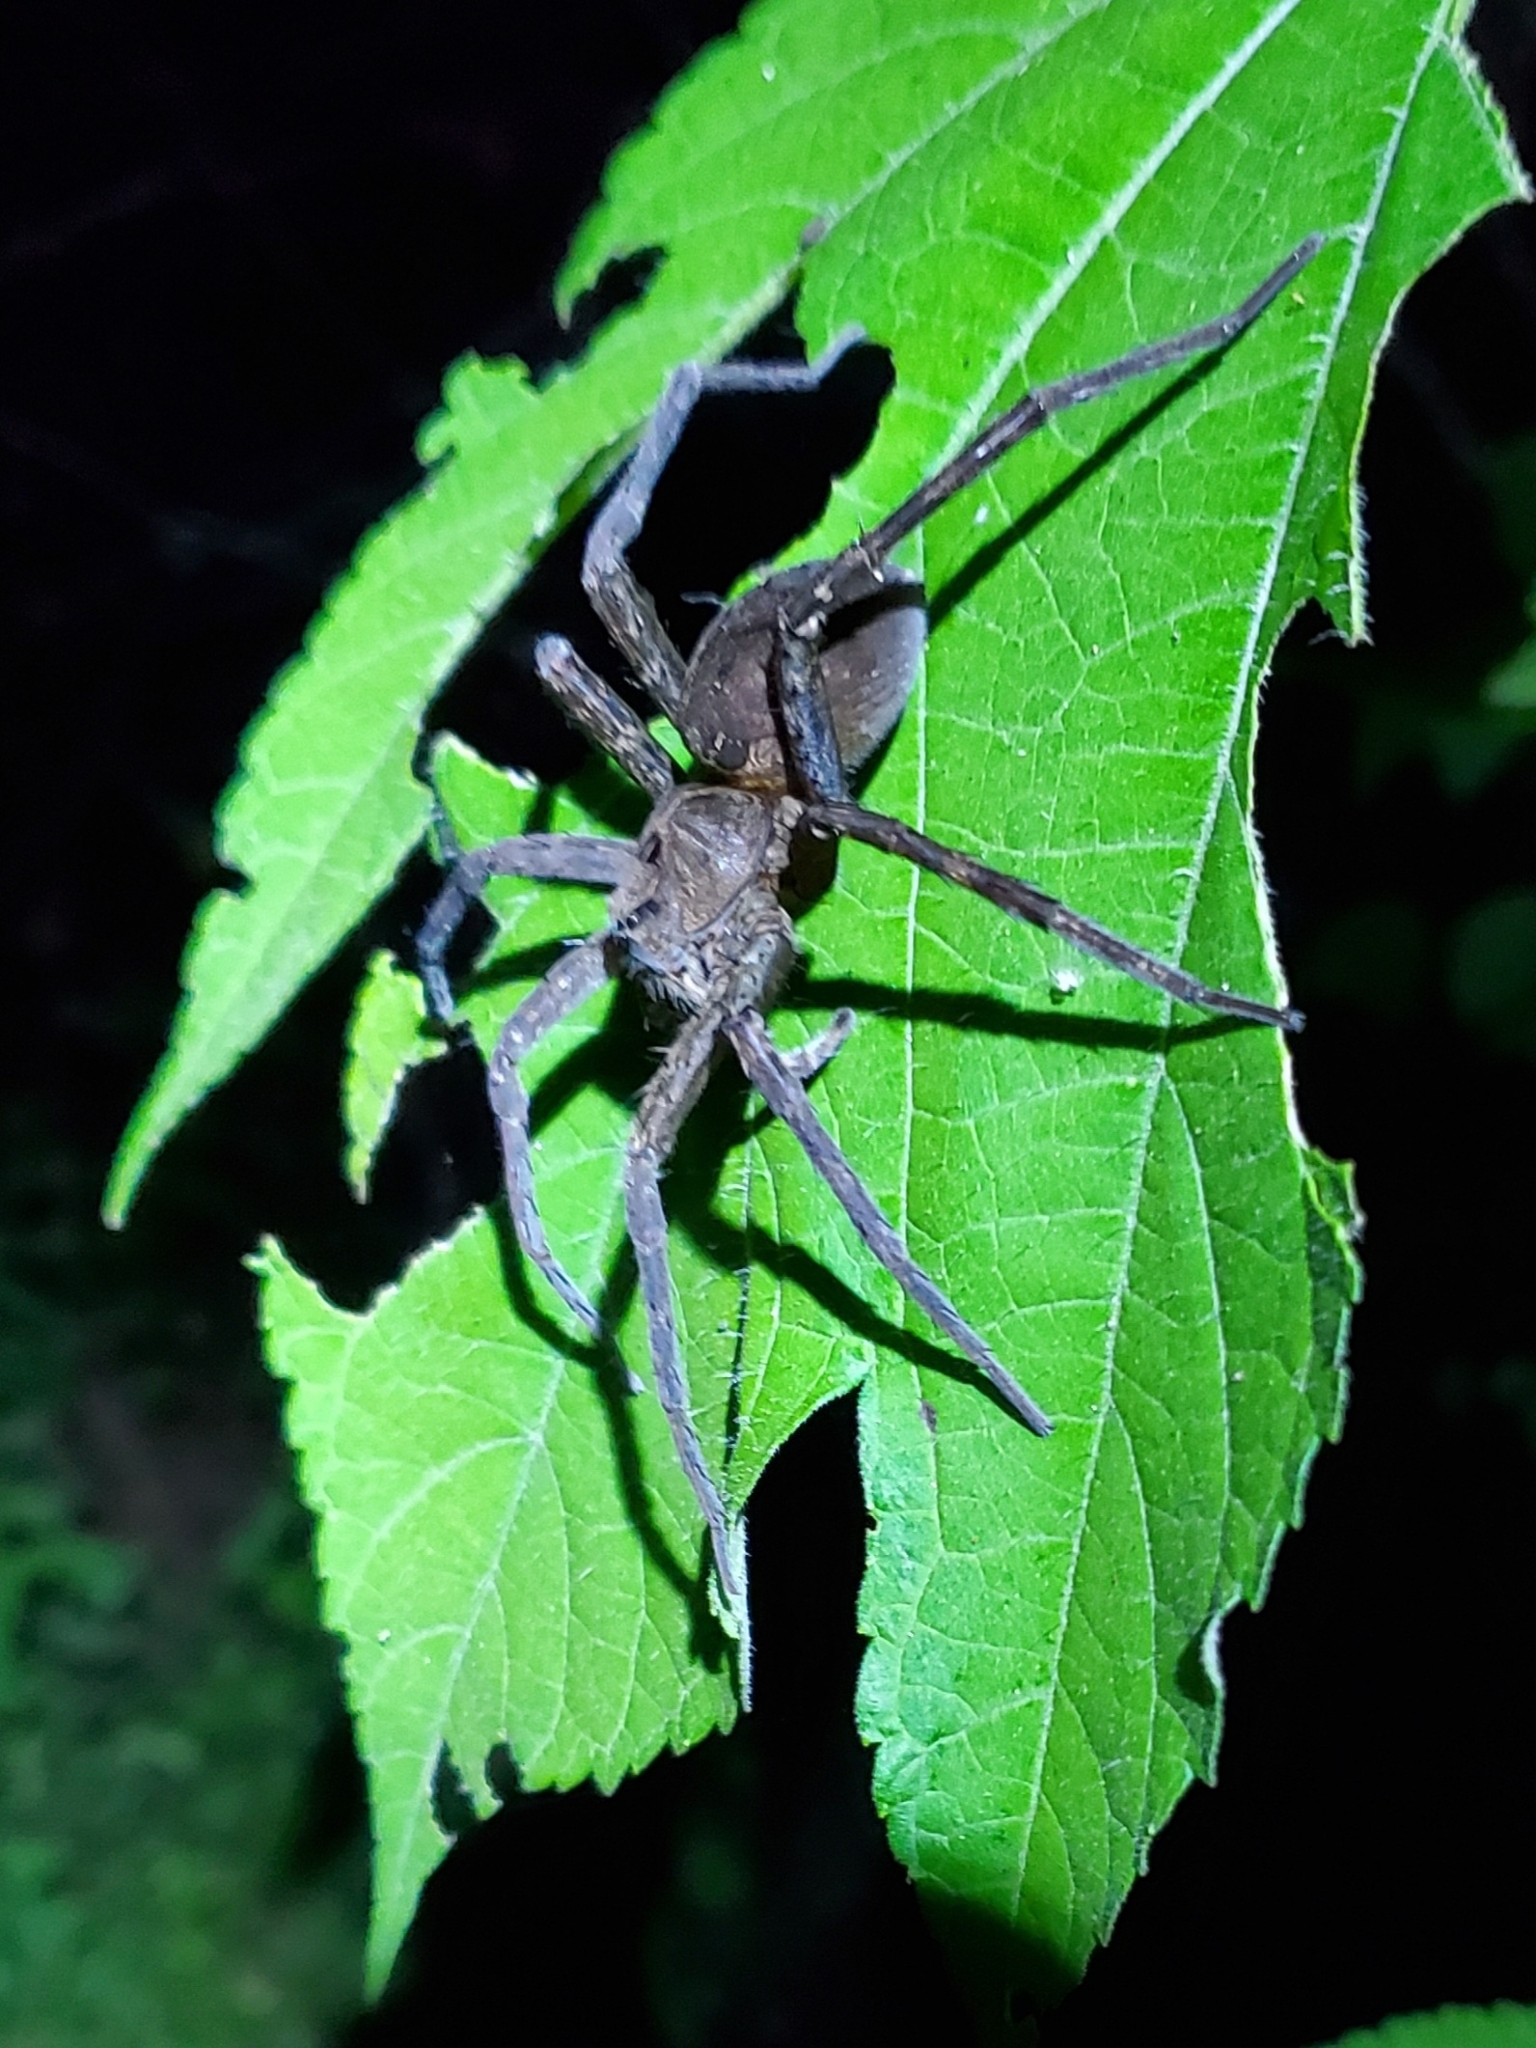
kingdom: Animalia
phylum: Arthropoda
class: Arachnida
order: Araneae
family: Pisauridae
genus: Dolomedes
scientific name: Dolomedes vittatus
